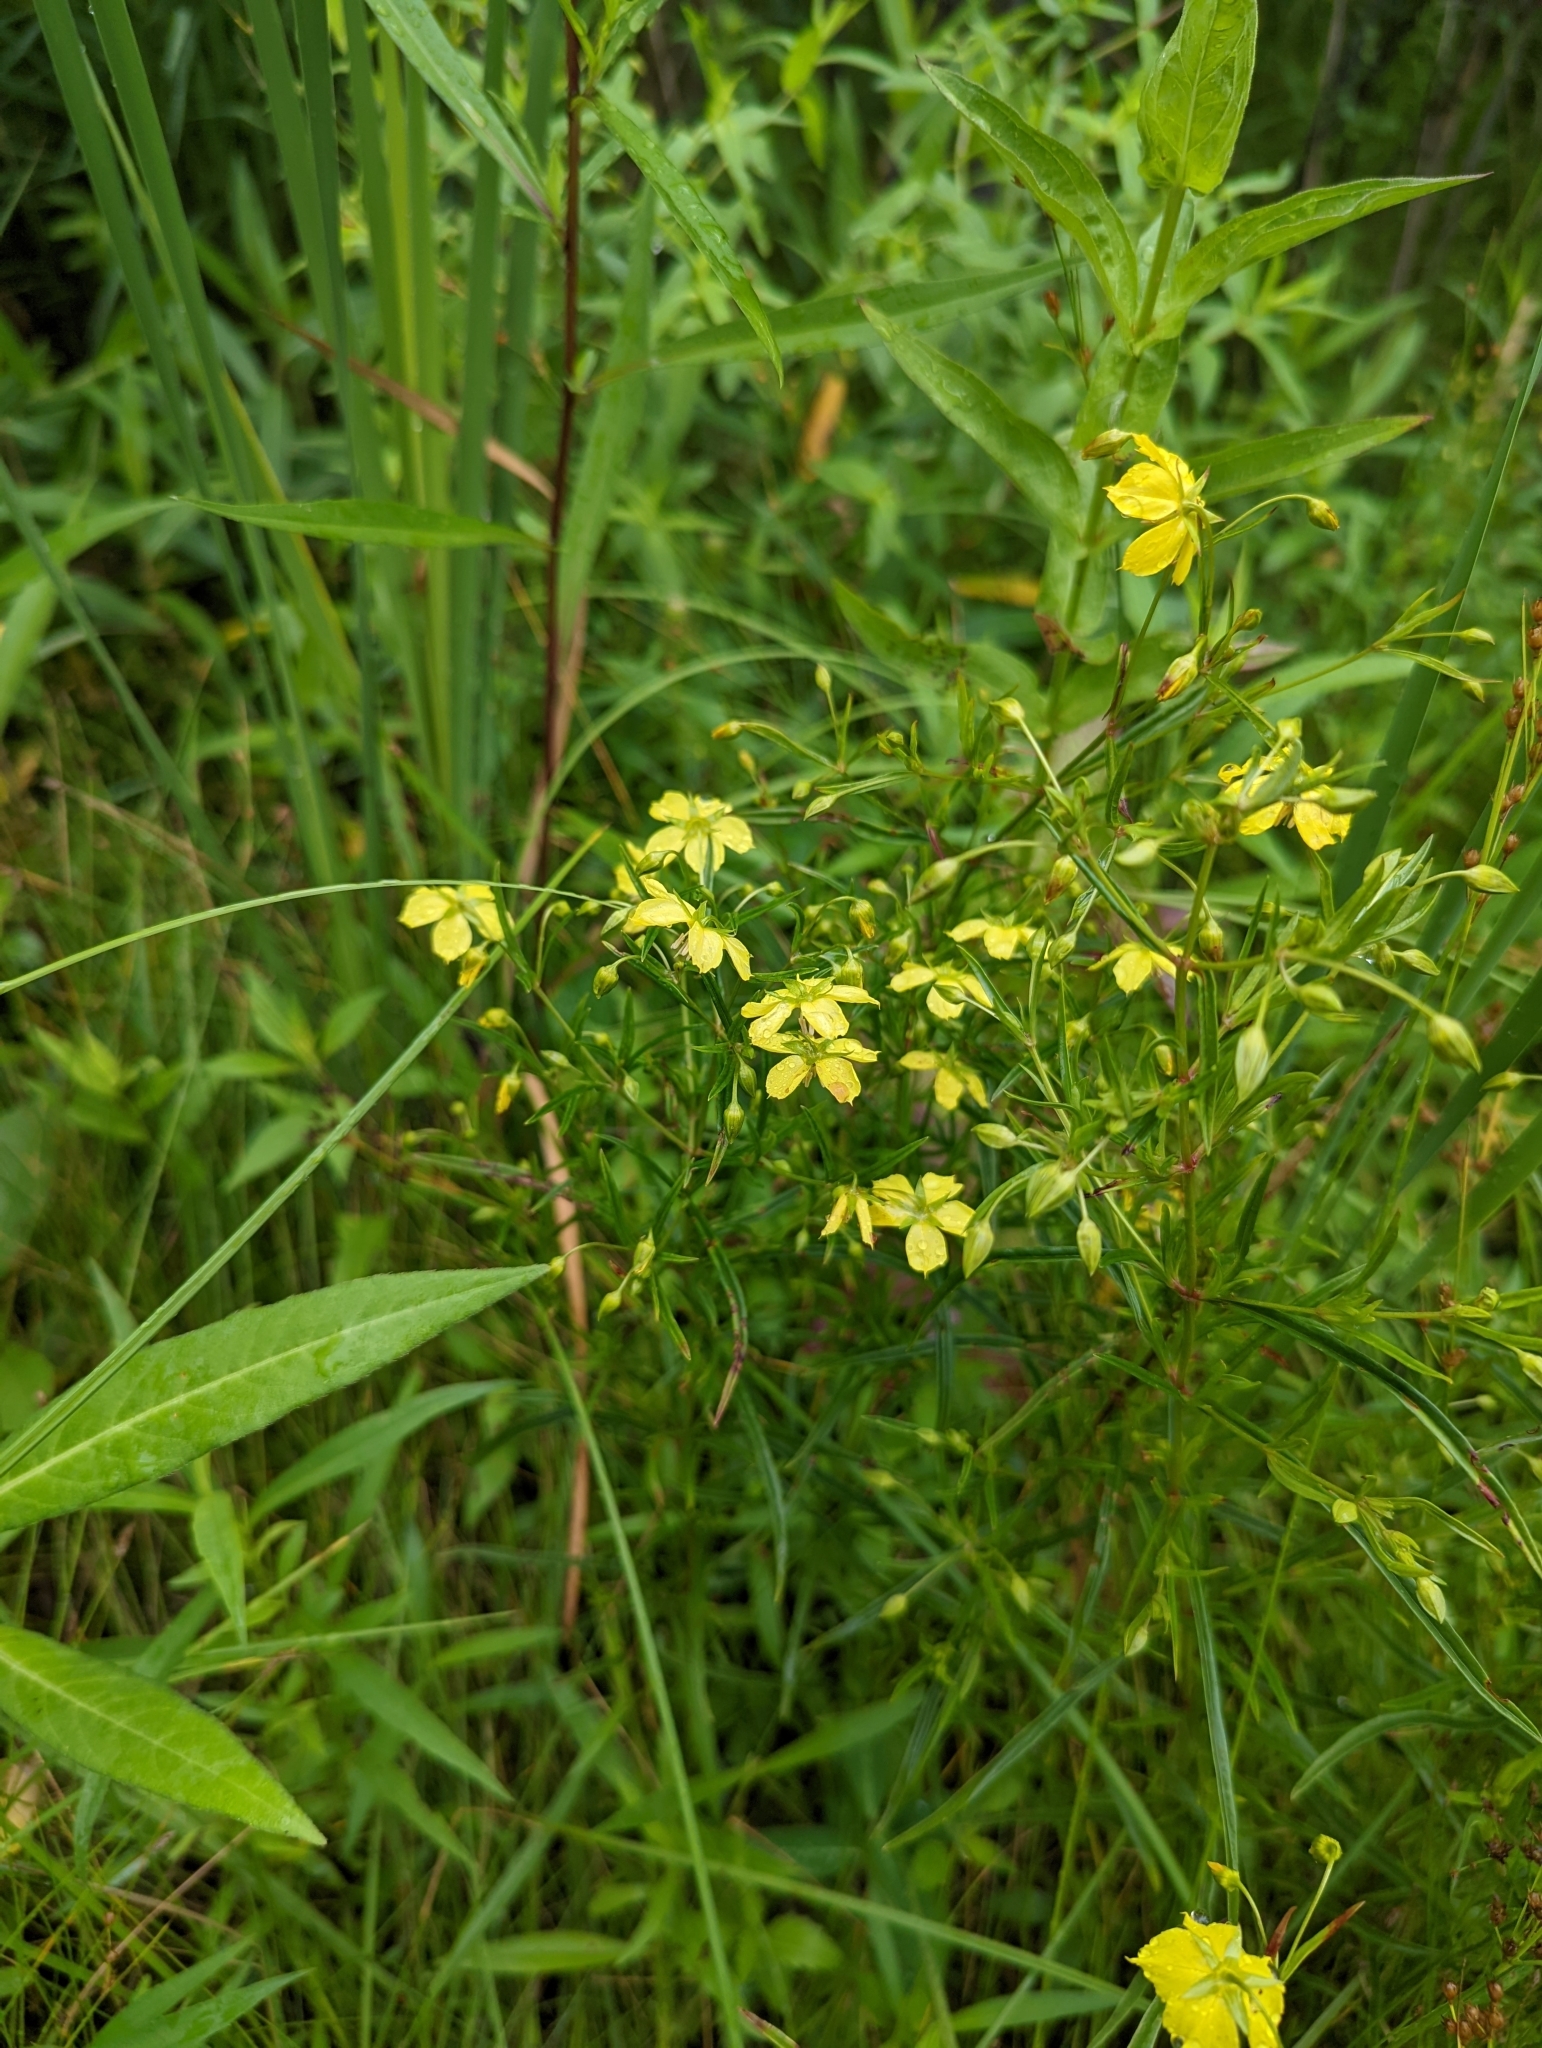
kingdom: Plantae
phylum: Tracheophyta
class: Magnoliopsida
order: Ericales
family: Primulaceae
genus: Lysimachia
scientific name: Lysimachia quadriflora
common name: Four-flowered loosestrife
